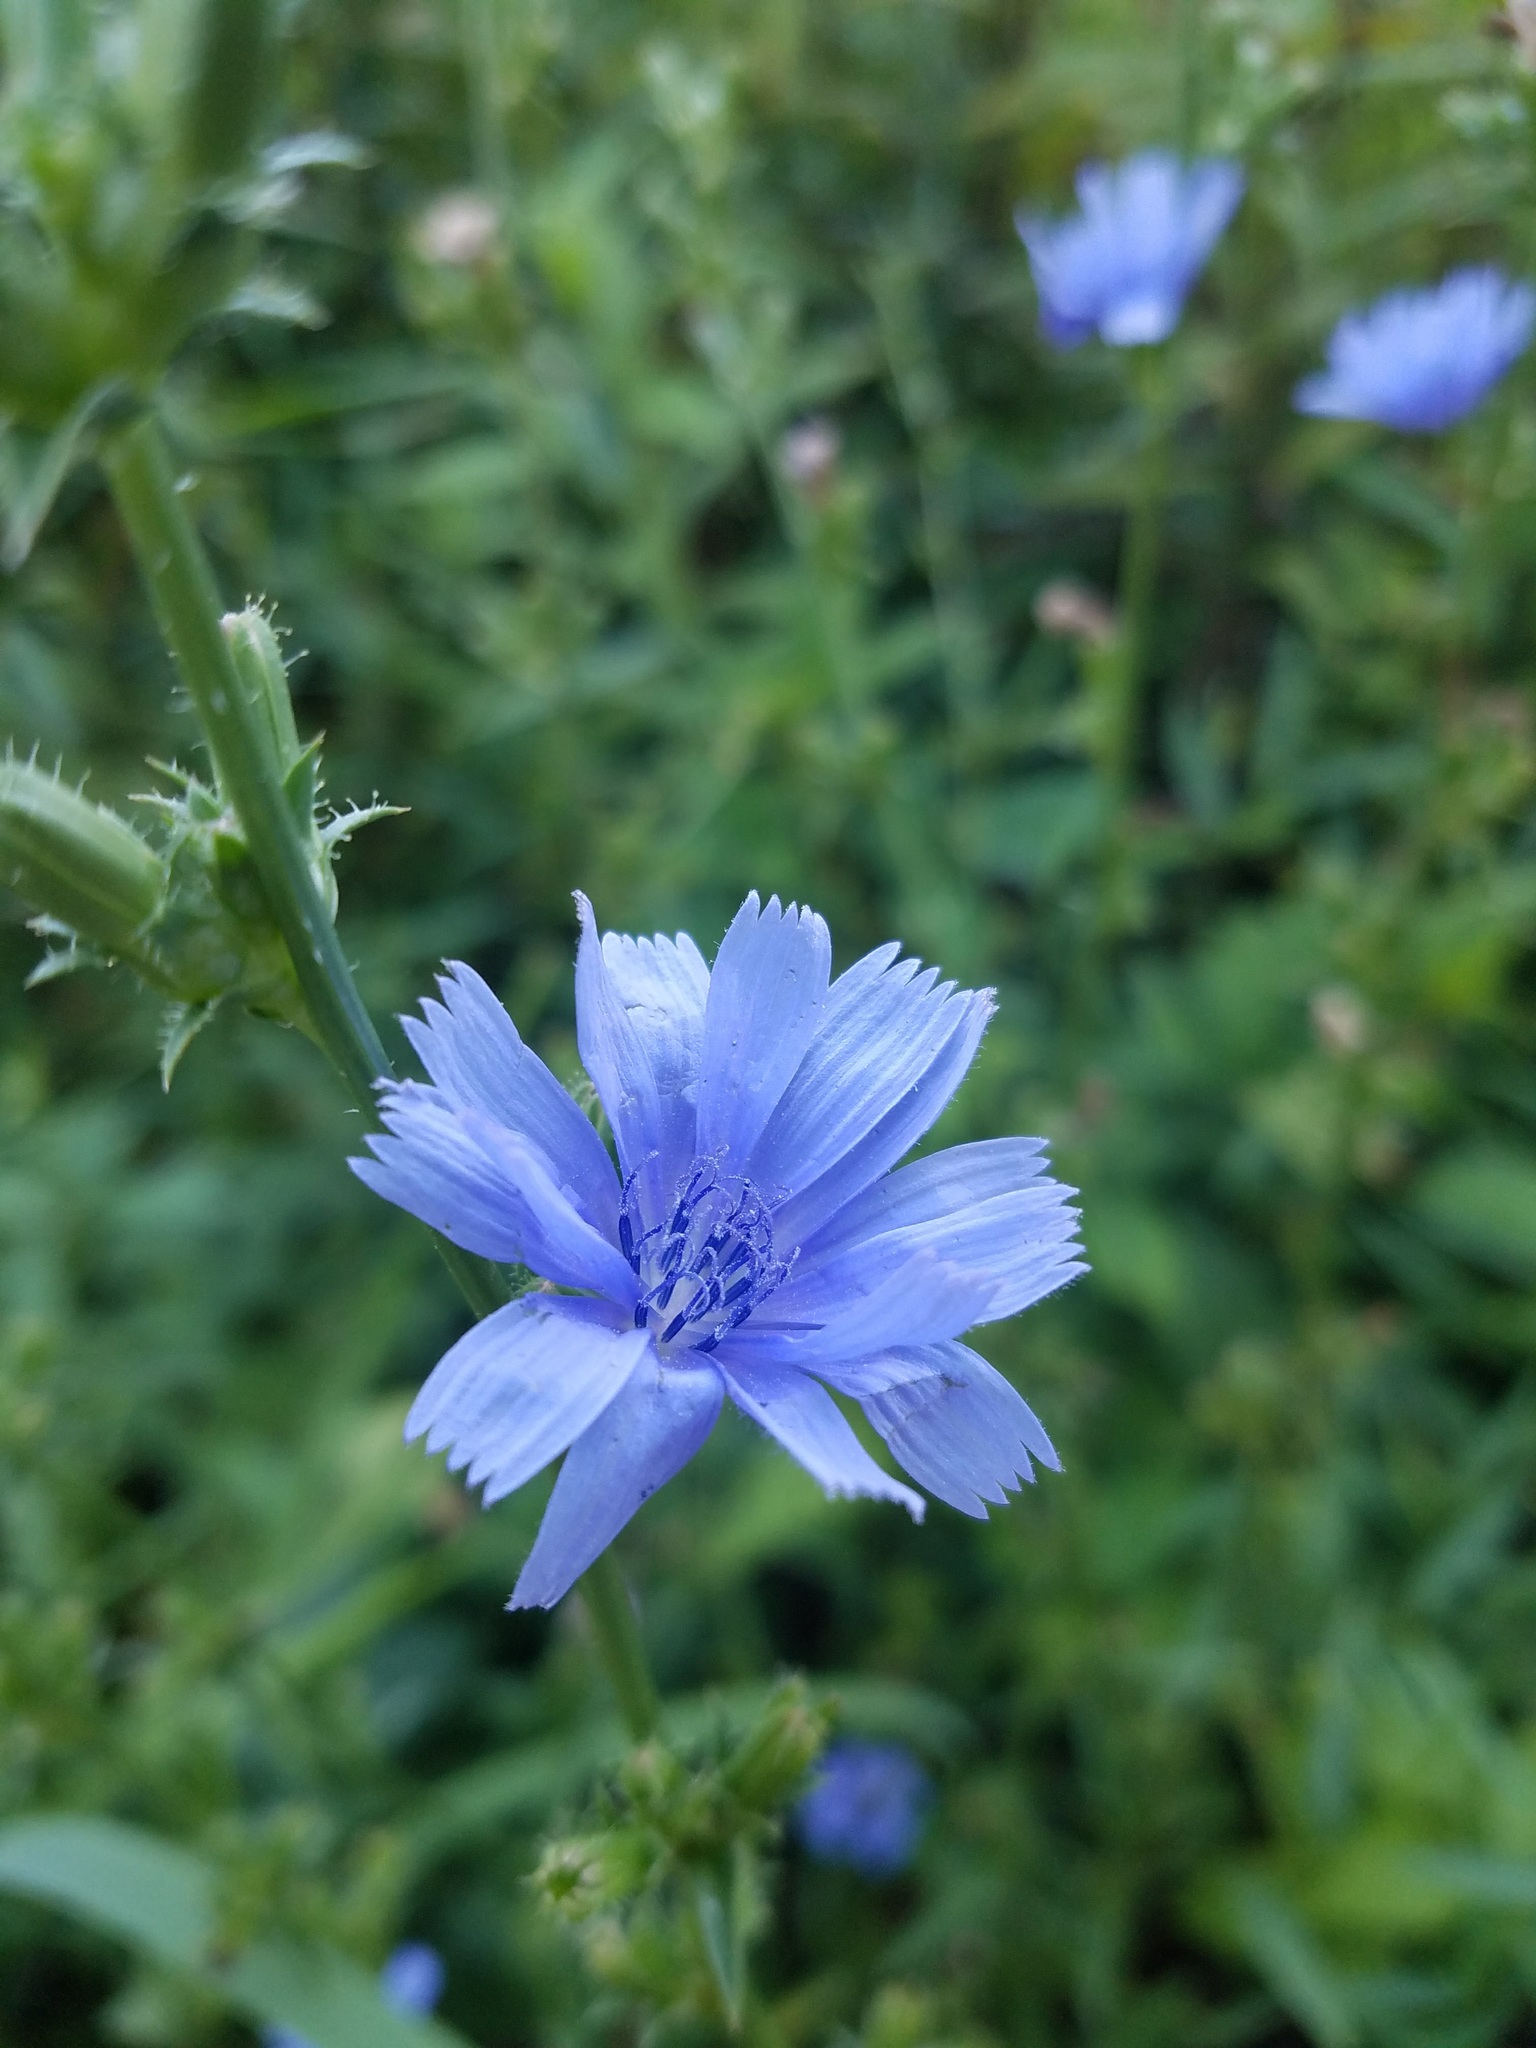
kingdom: Plantae
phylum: Tracheophyta
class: Magnoliopsida
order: Asterales
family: Asteraceae
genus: Cichorium
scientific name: Cichorium intybus
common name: Chicory
